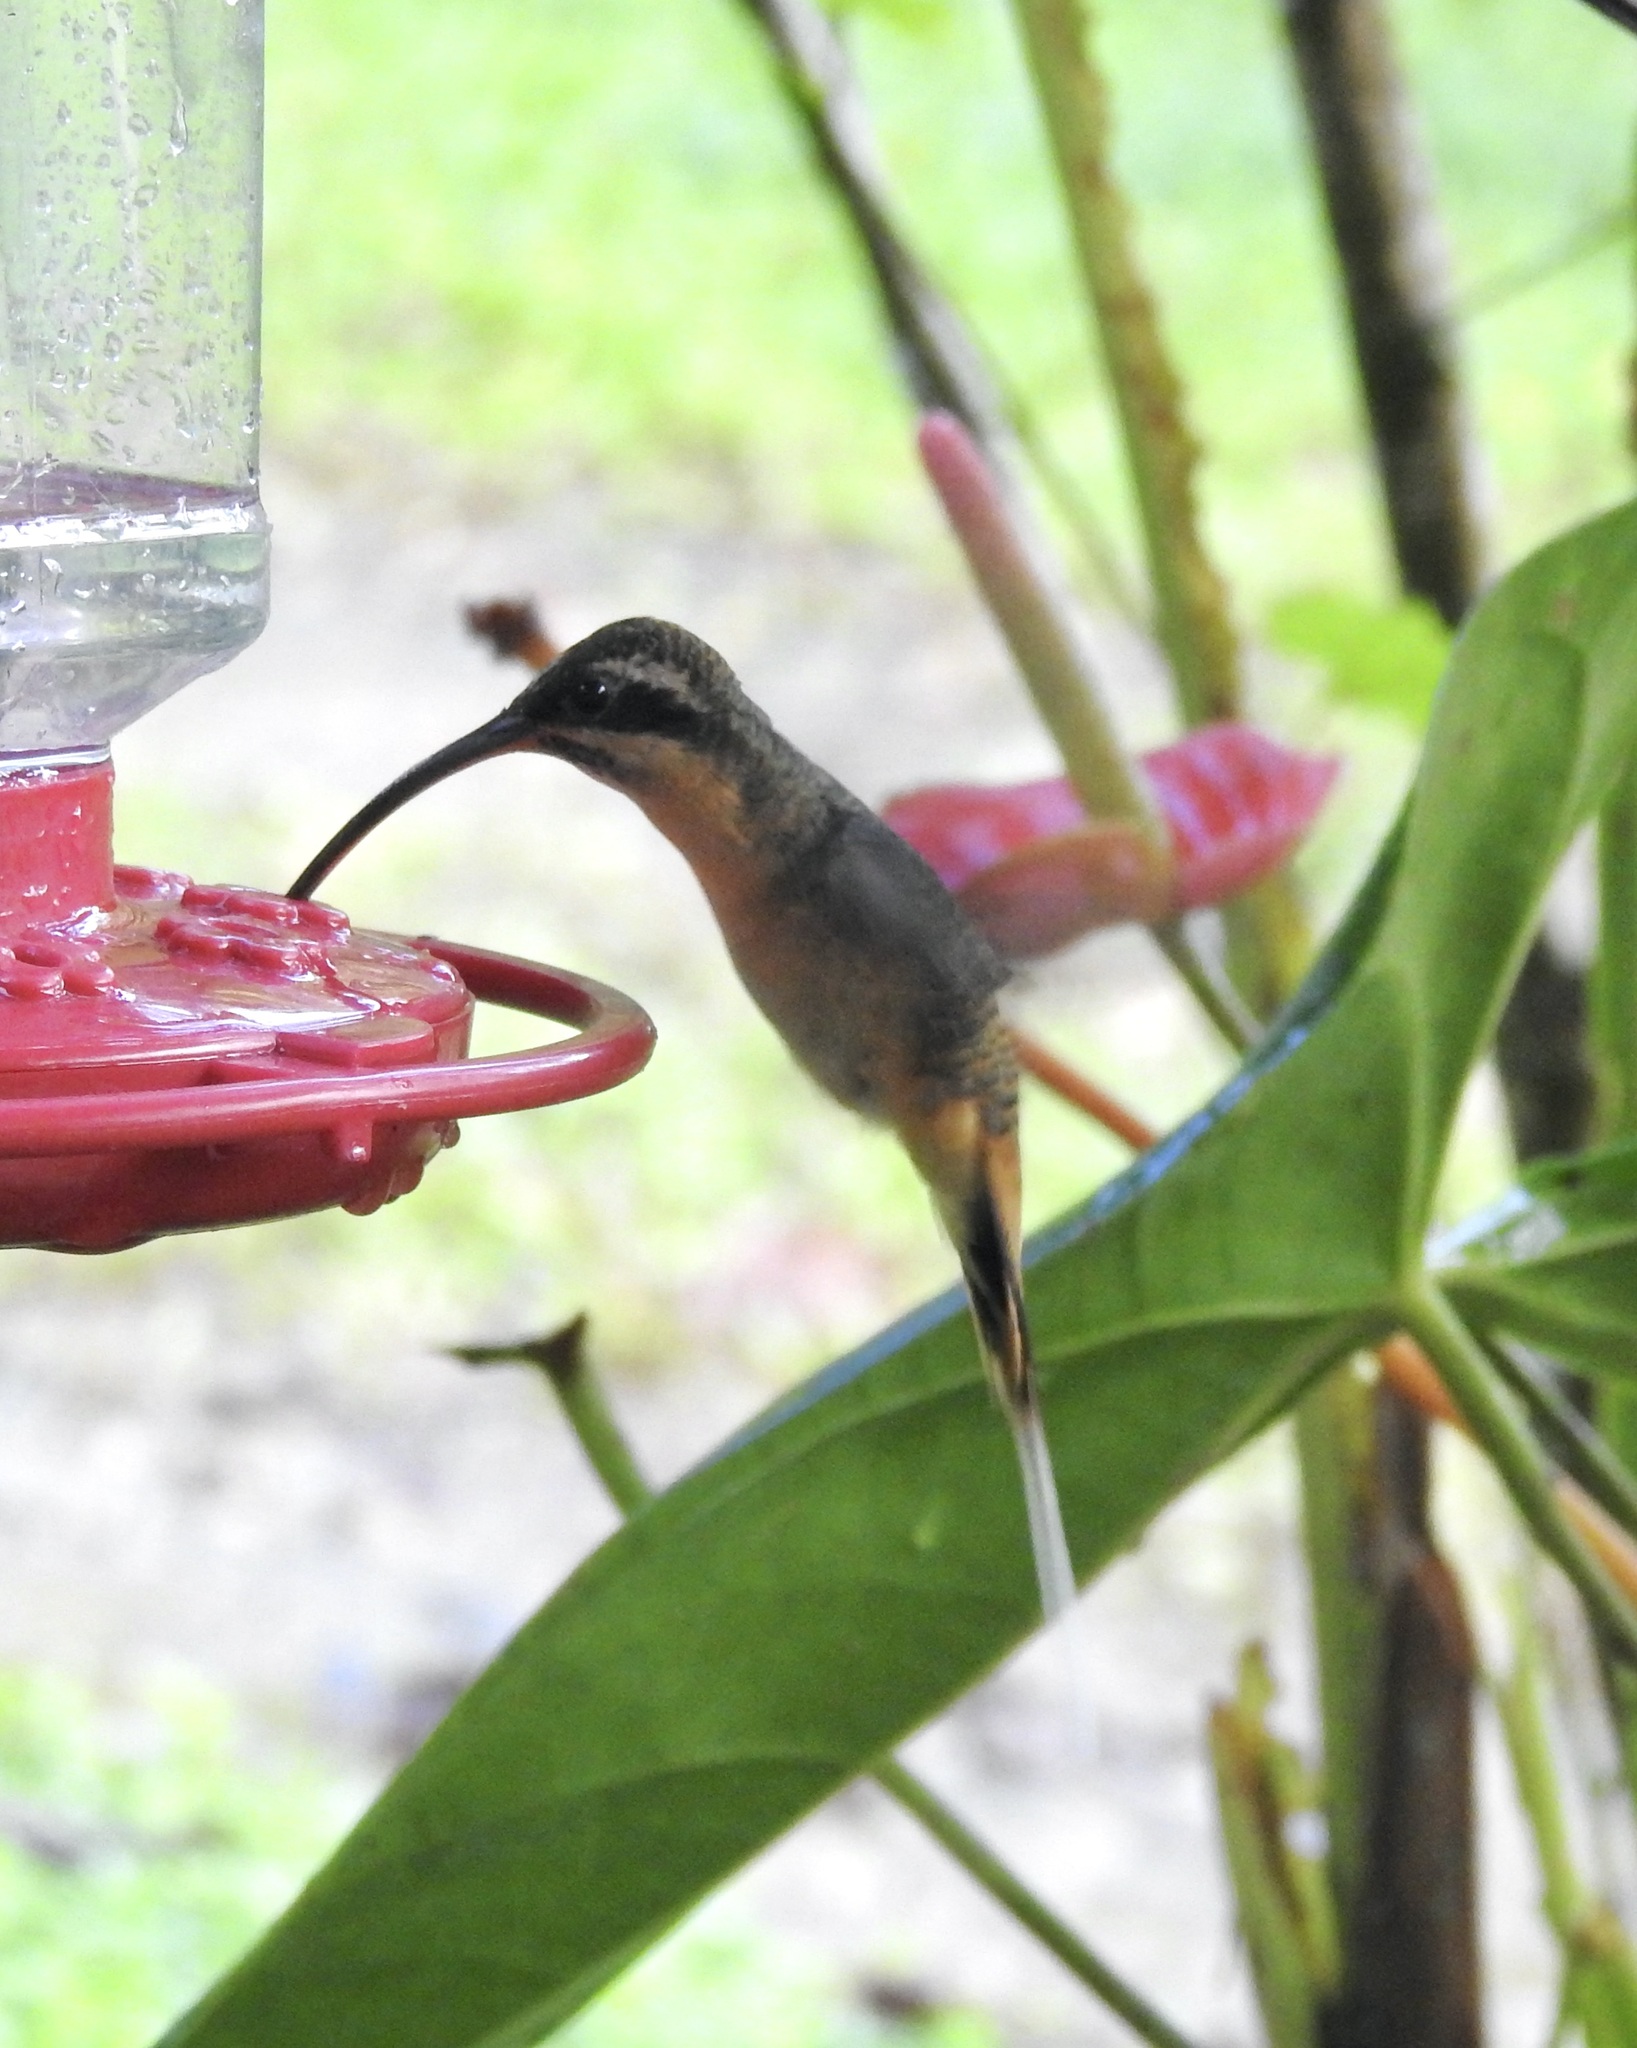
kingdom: Animalia
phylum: Chordata
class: Aves
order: Apodiformes
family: Trochilidae
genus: Phaethornis
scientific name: Phaethornis syrmatophorus
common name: Tawny-bellied hermit
